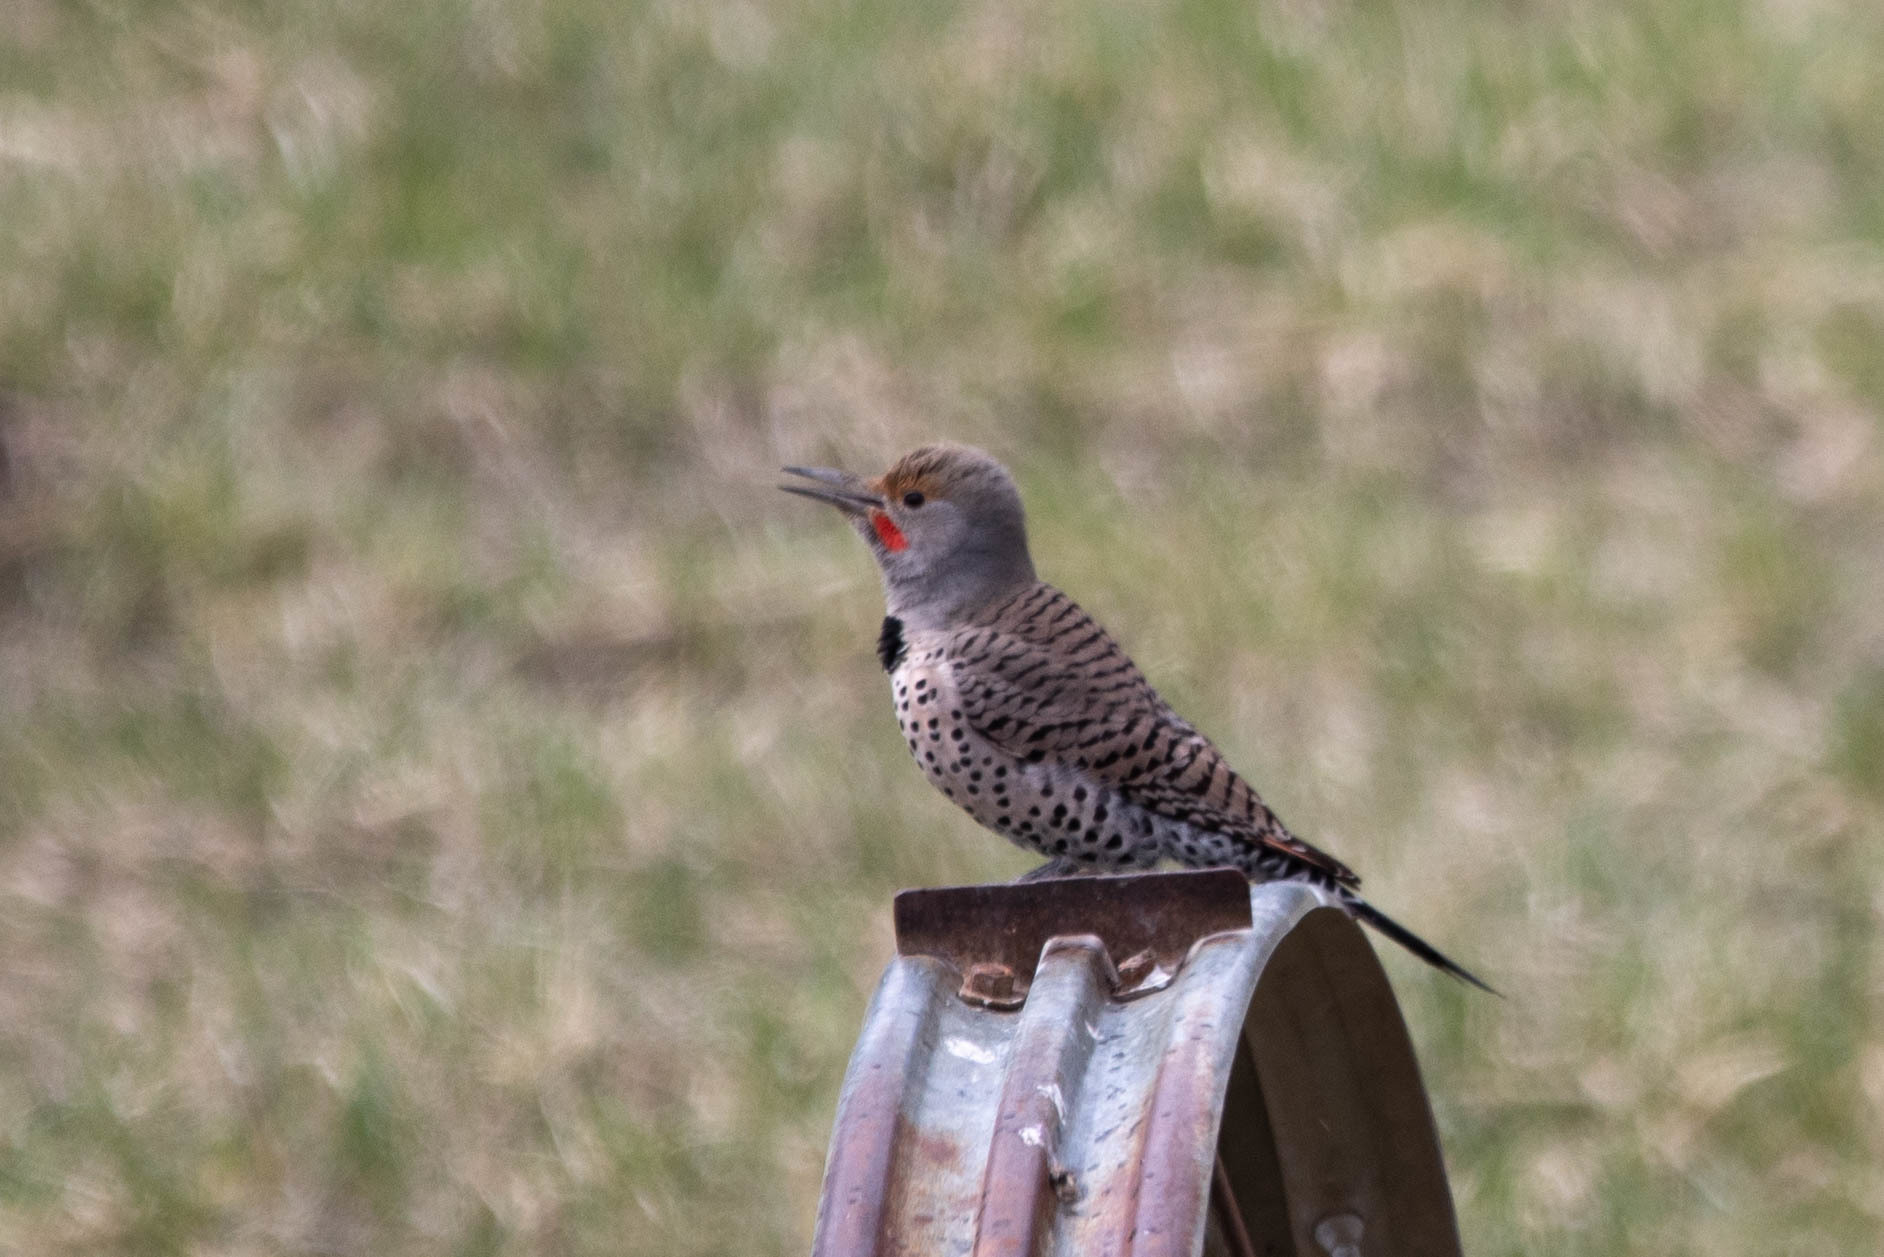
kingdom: Animalia
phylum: Chordata
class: Aves
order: Piciformes
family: Picidae
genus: Colaptes
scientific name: Colaptes auratus
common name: Northern flicker
